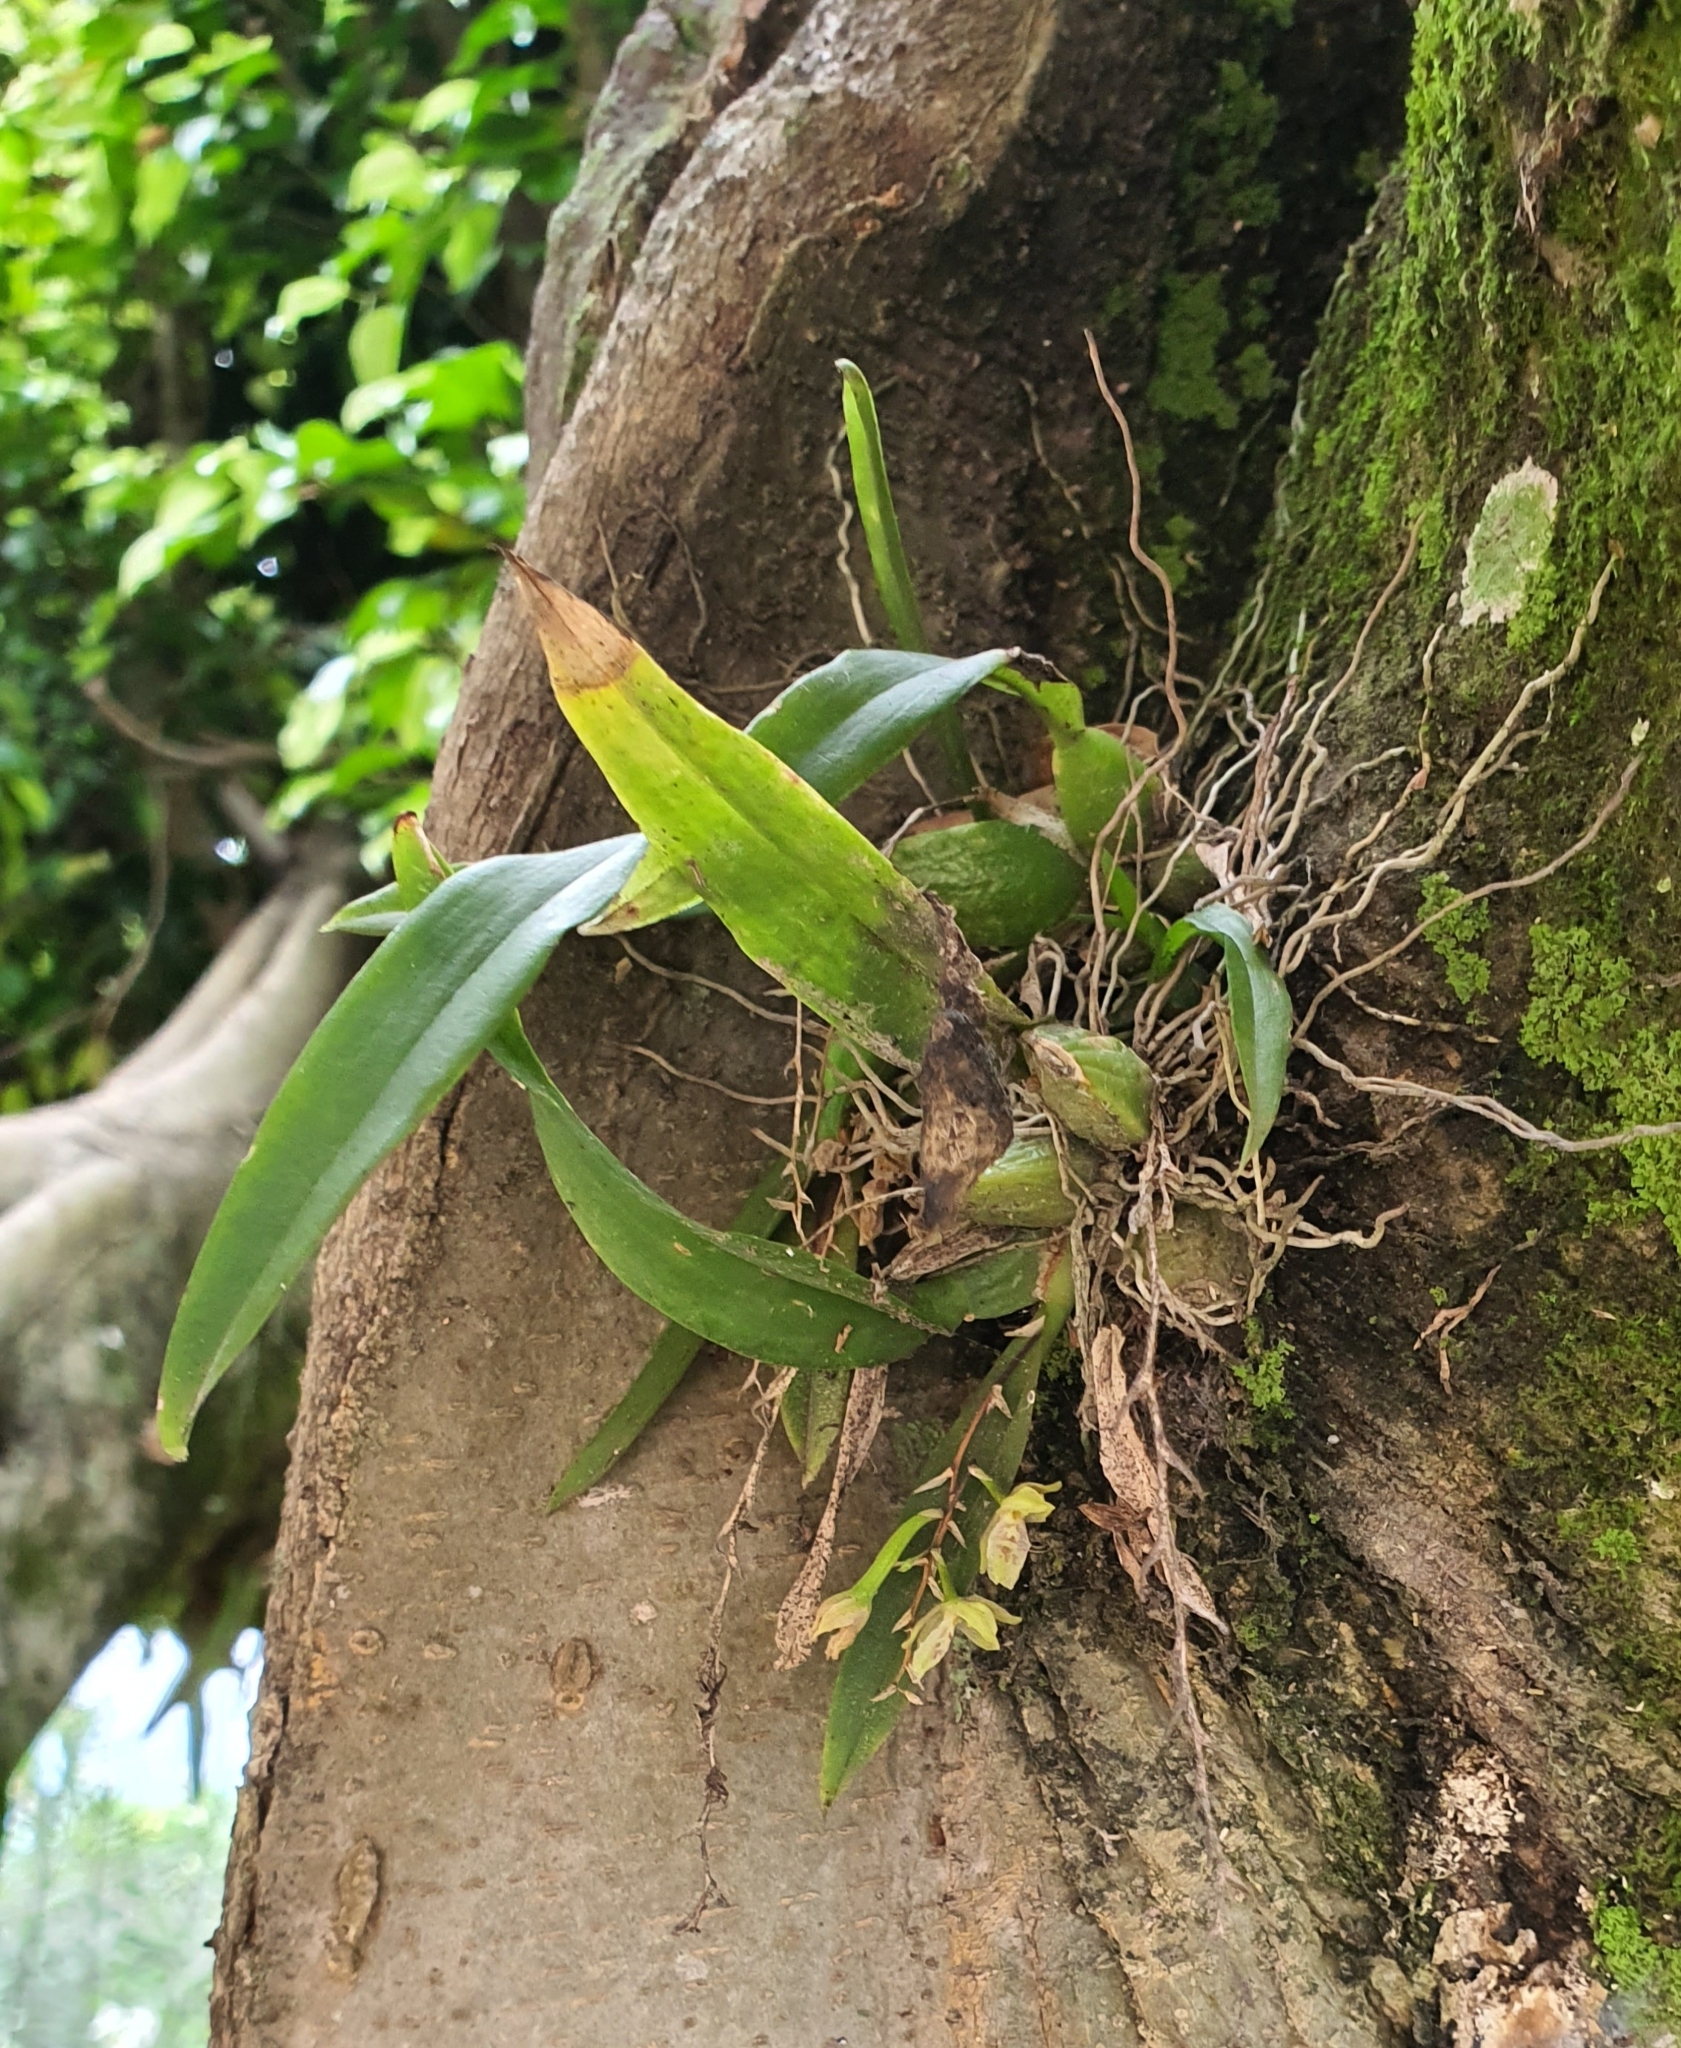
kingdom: Plantae
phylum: Tracheophyta
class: Liliopsida
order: Asparagales
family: Orchidaceae
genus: Leochilus
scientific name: Leochilus oncidioides
